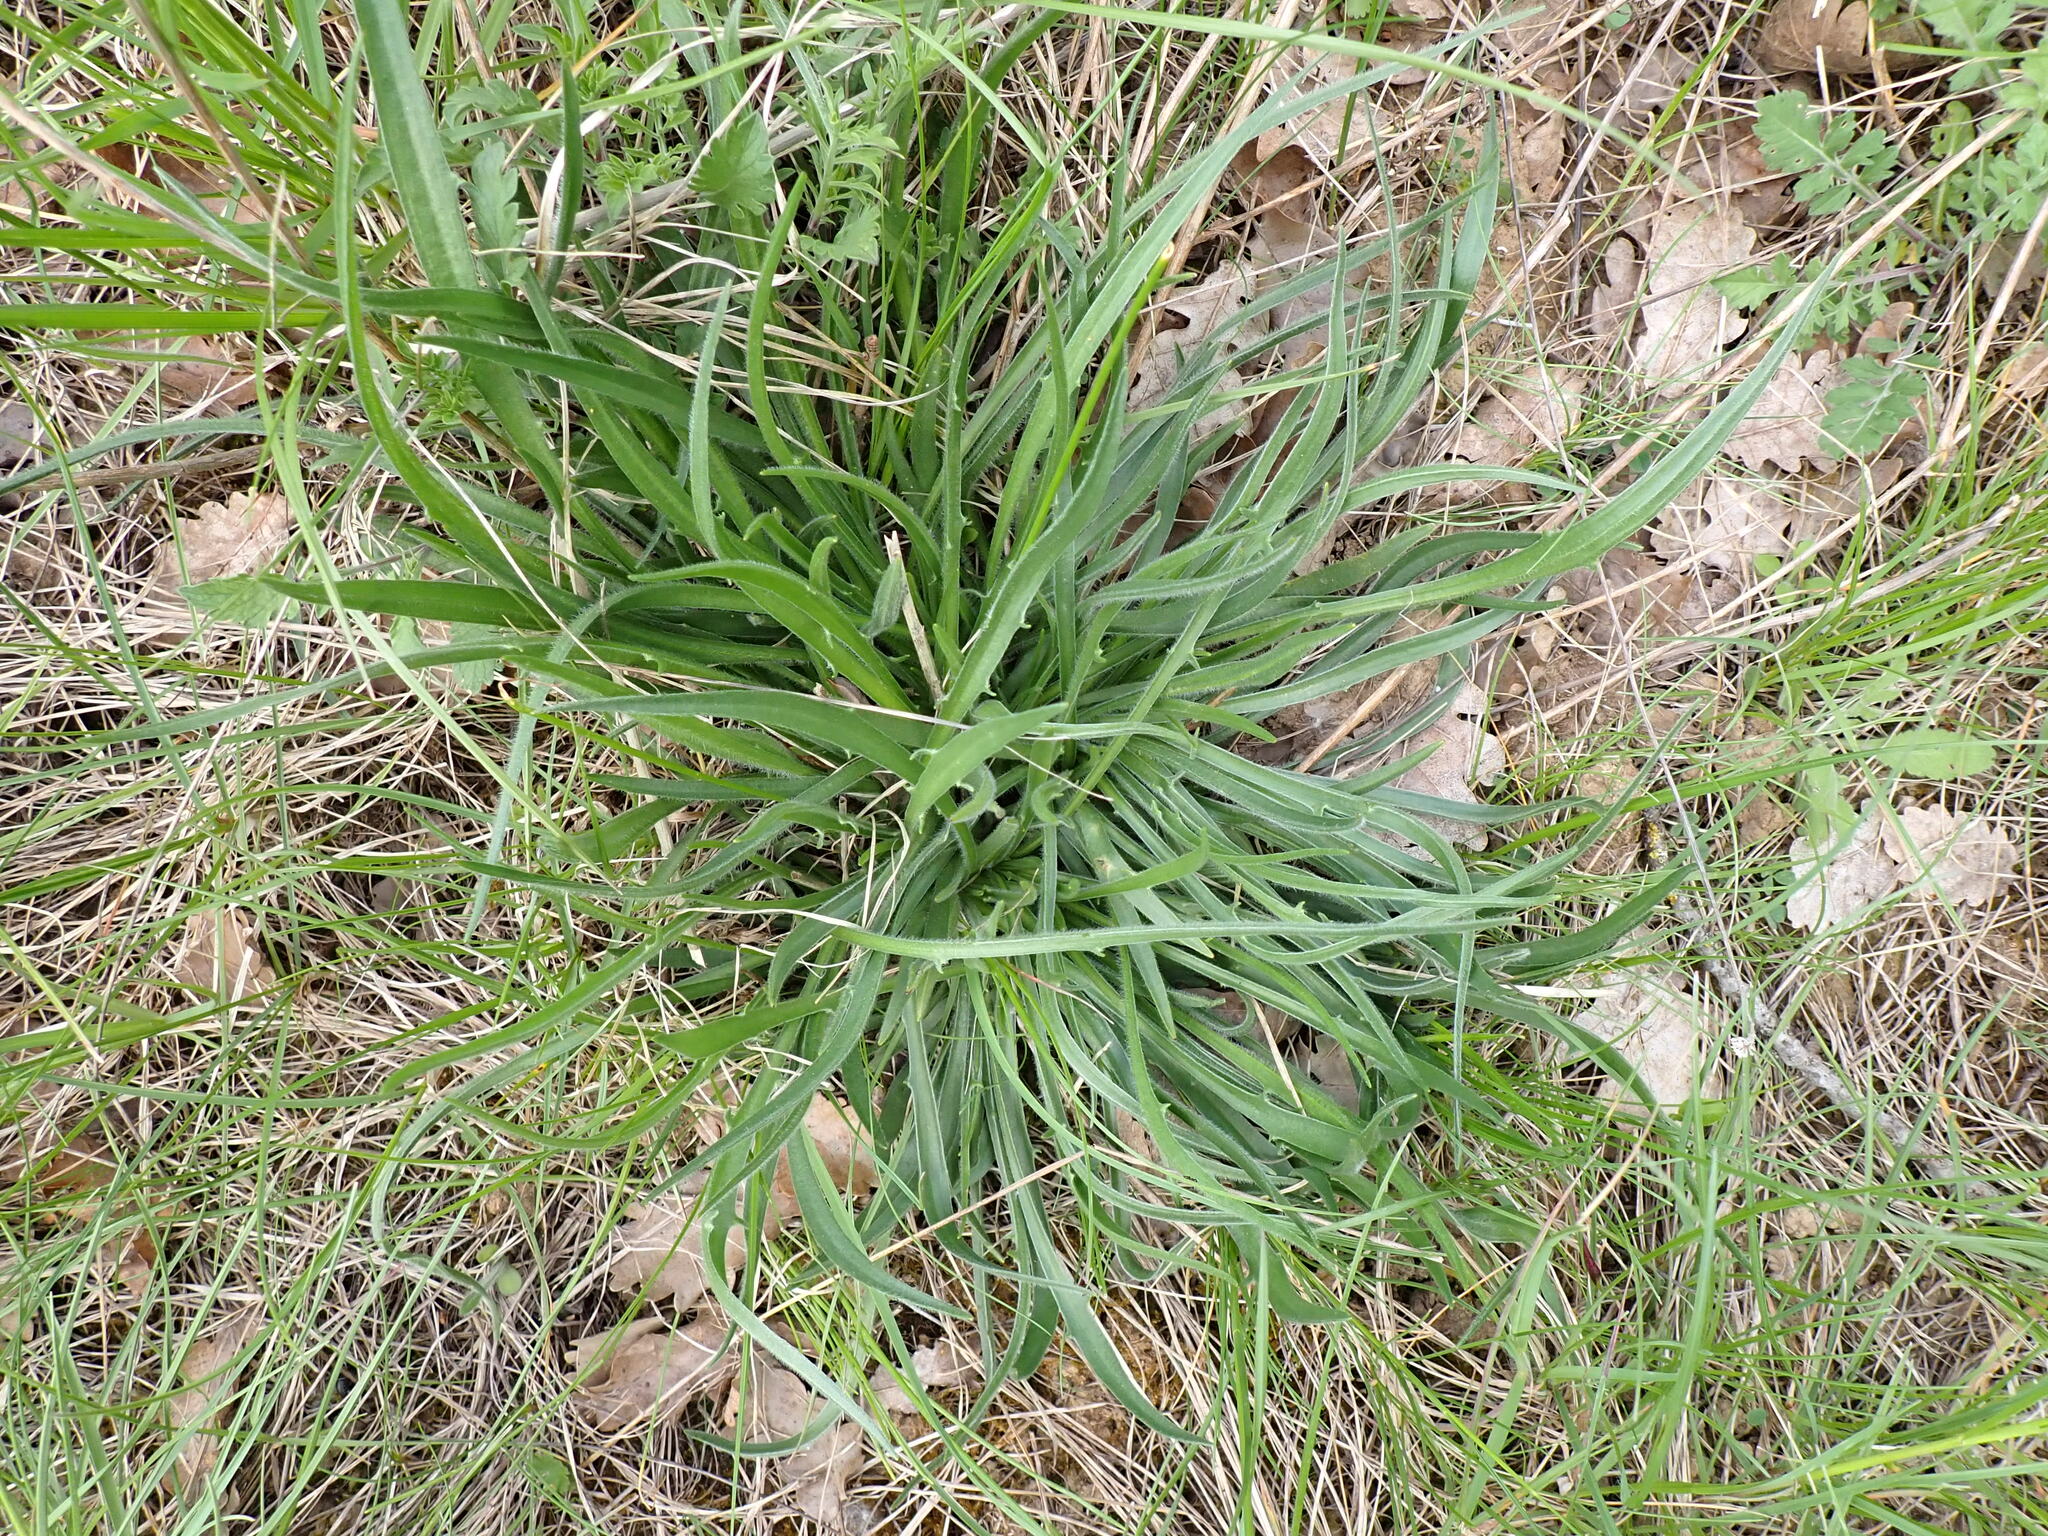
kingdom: Plantae
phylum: Tracheophyta
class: Magnoliopsida
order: Asterales
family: Asteraceae
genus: Catananche
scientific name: Catananche caerulea
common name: Blue cupidone
